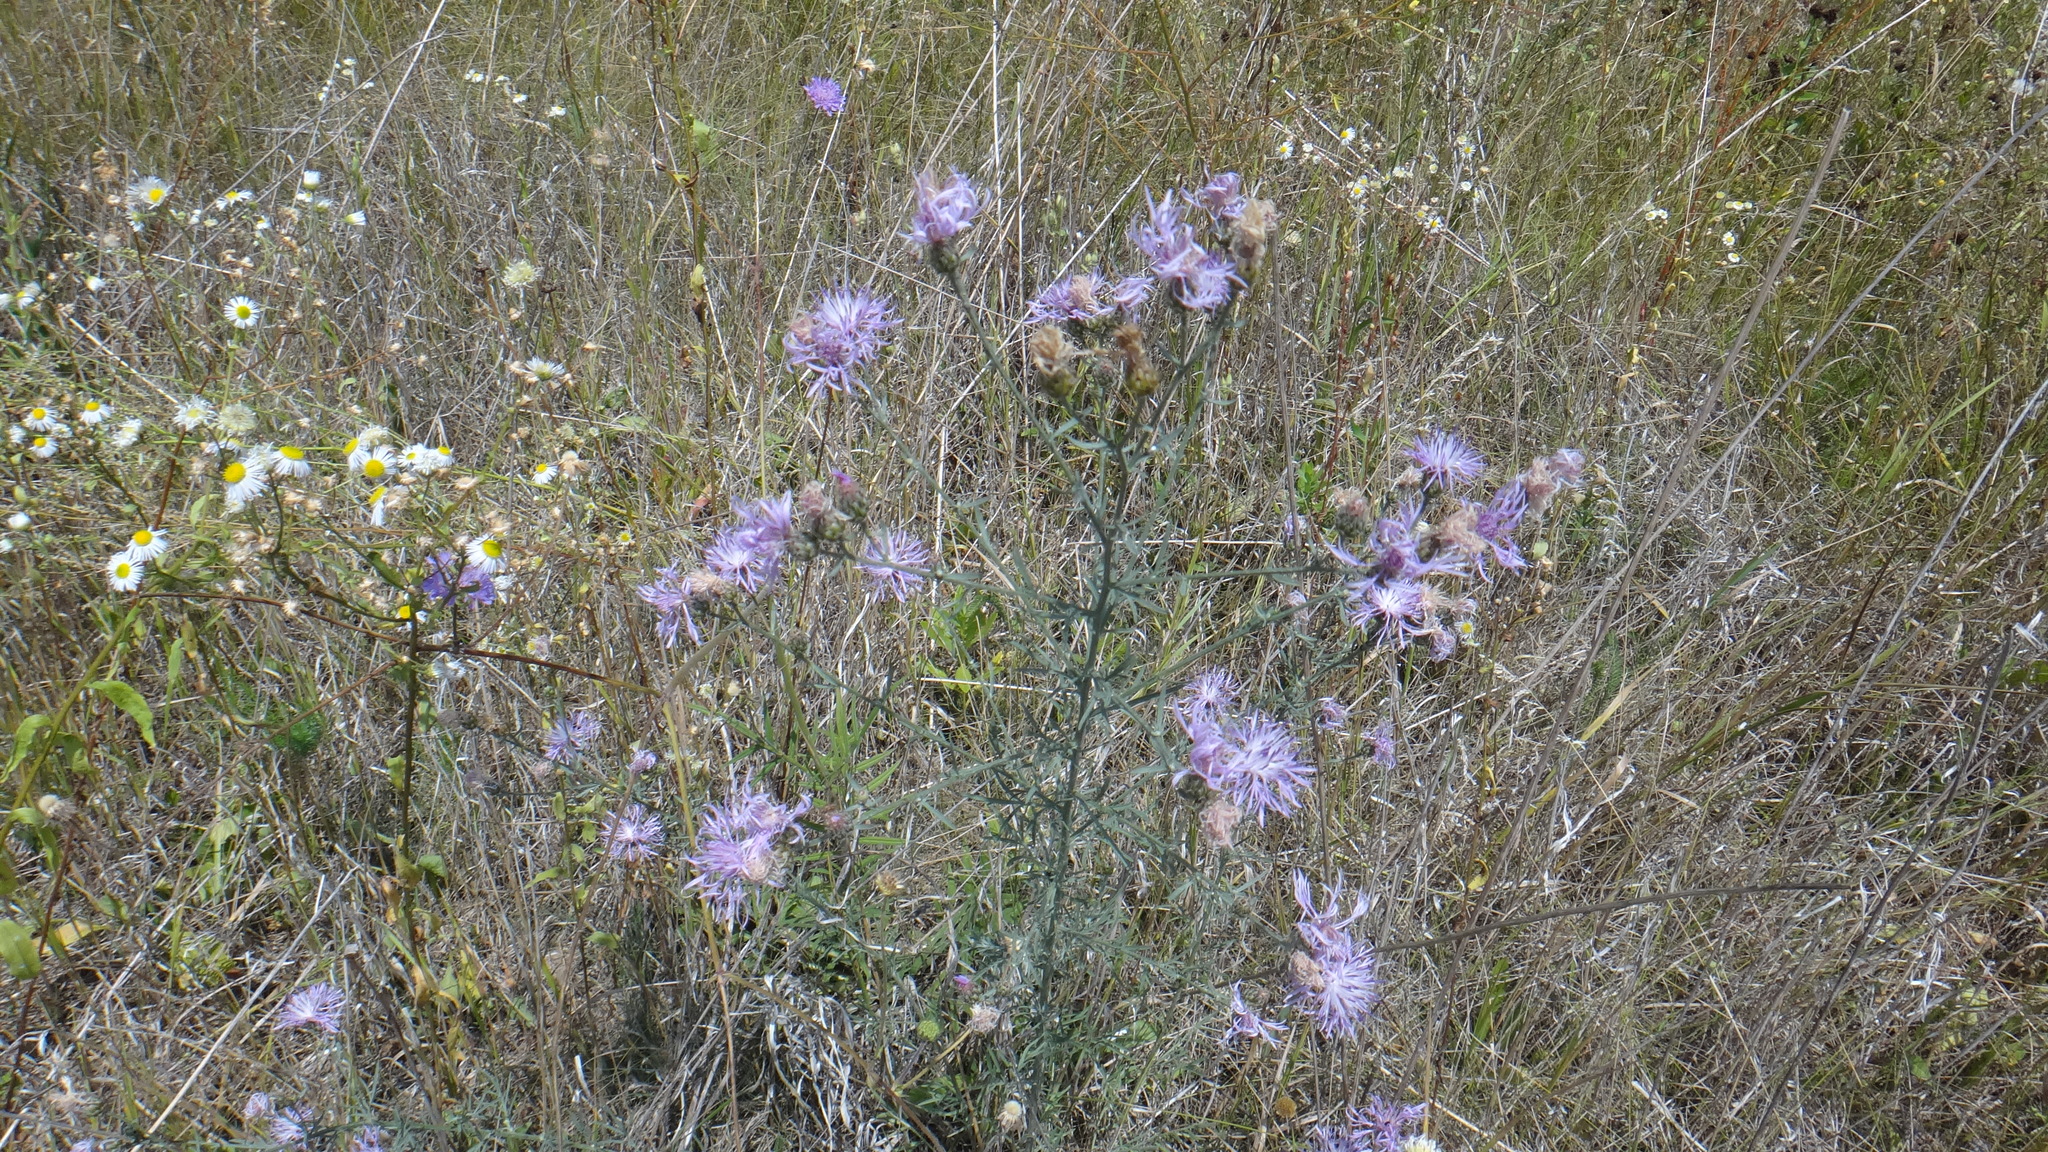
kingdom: Plantae
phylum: Tracheophyta
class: Magnoliopsida
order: Asterales
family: Asteraceae
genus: Centaurea
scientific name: Centaurea stoebe
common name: Spotted knapweed
